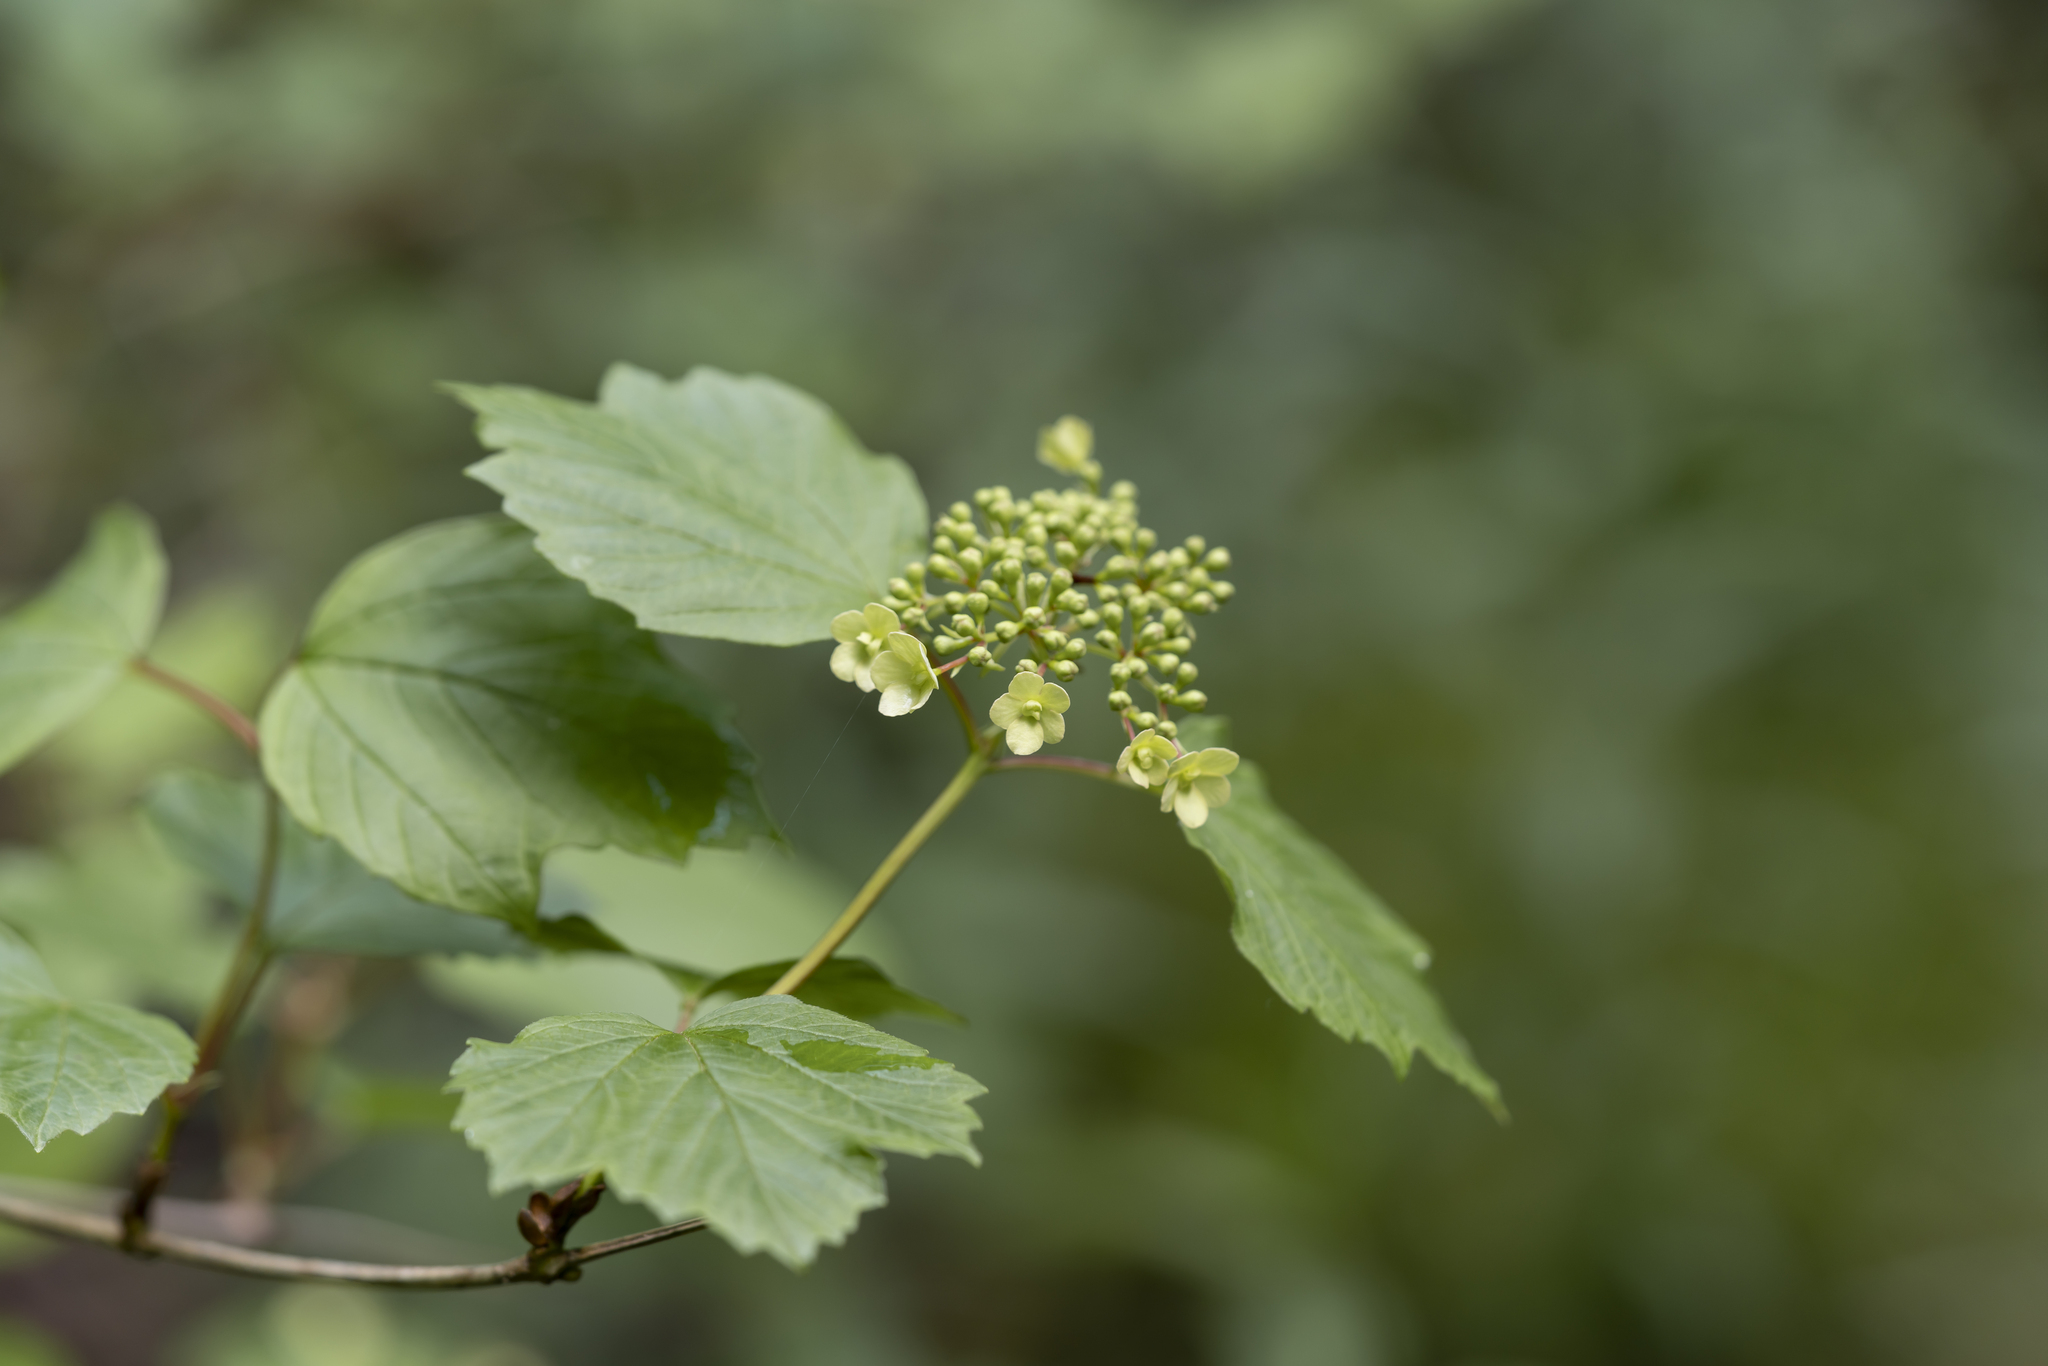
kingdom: Plantae
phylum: Tracheophyta
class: Magnoliopsida
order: Dipsacales
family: Viburnaceae
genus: Viburnum
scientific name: Viburnum opulus
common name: Guelder-rose
